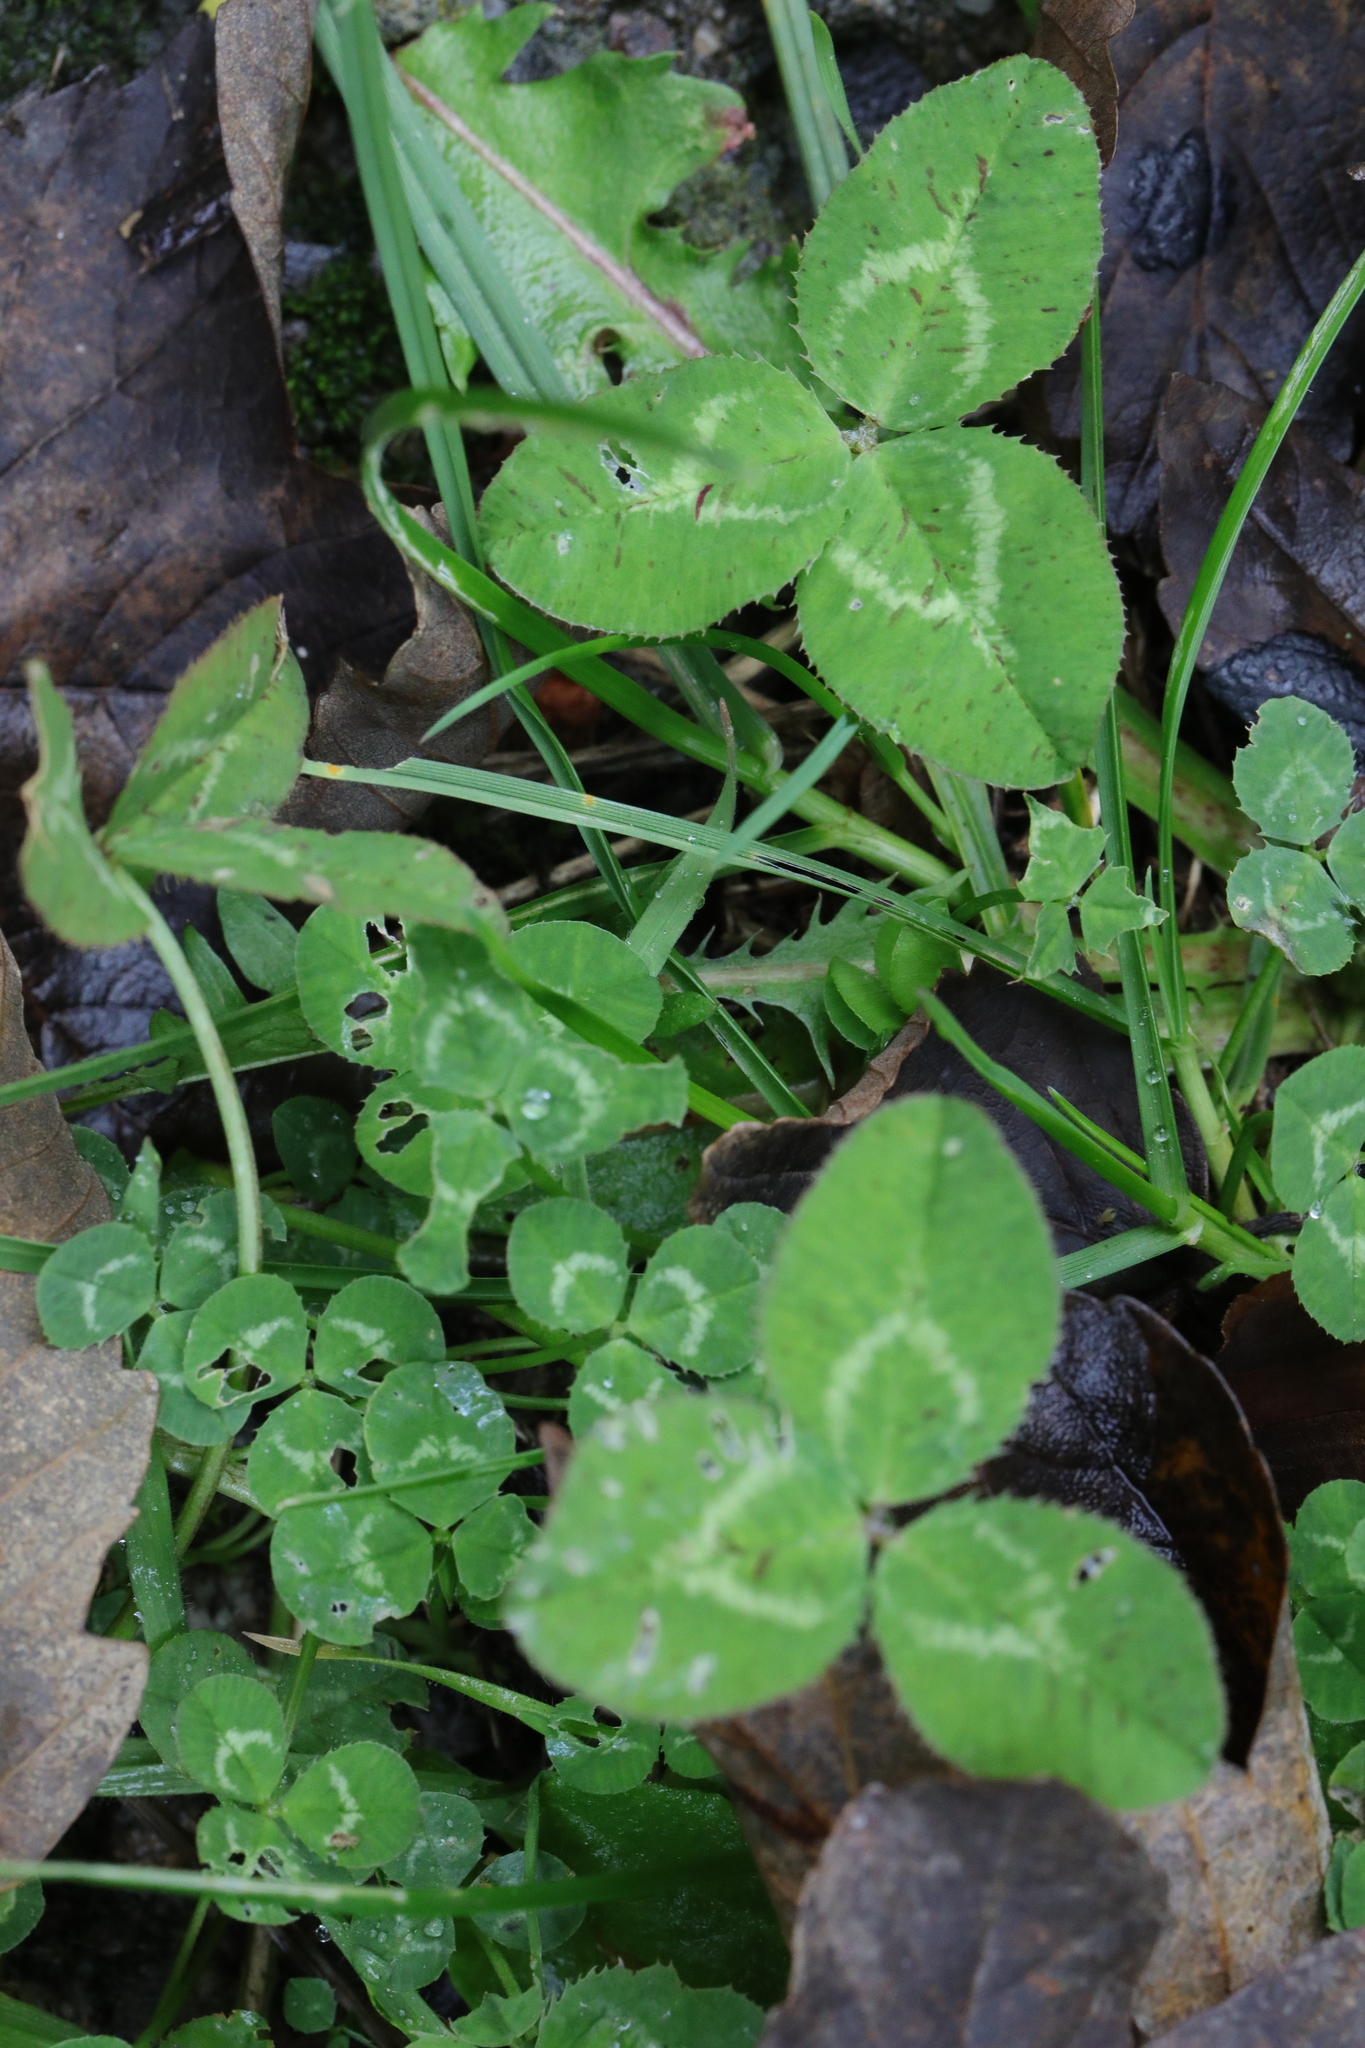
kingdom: Plantae
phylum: Tracheophyta
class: Magnoliopsida
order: Fabales
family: Fabaceae
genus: Trifolium
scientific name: Trifolium repens
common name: White clover
